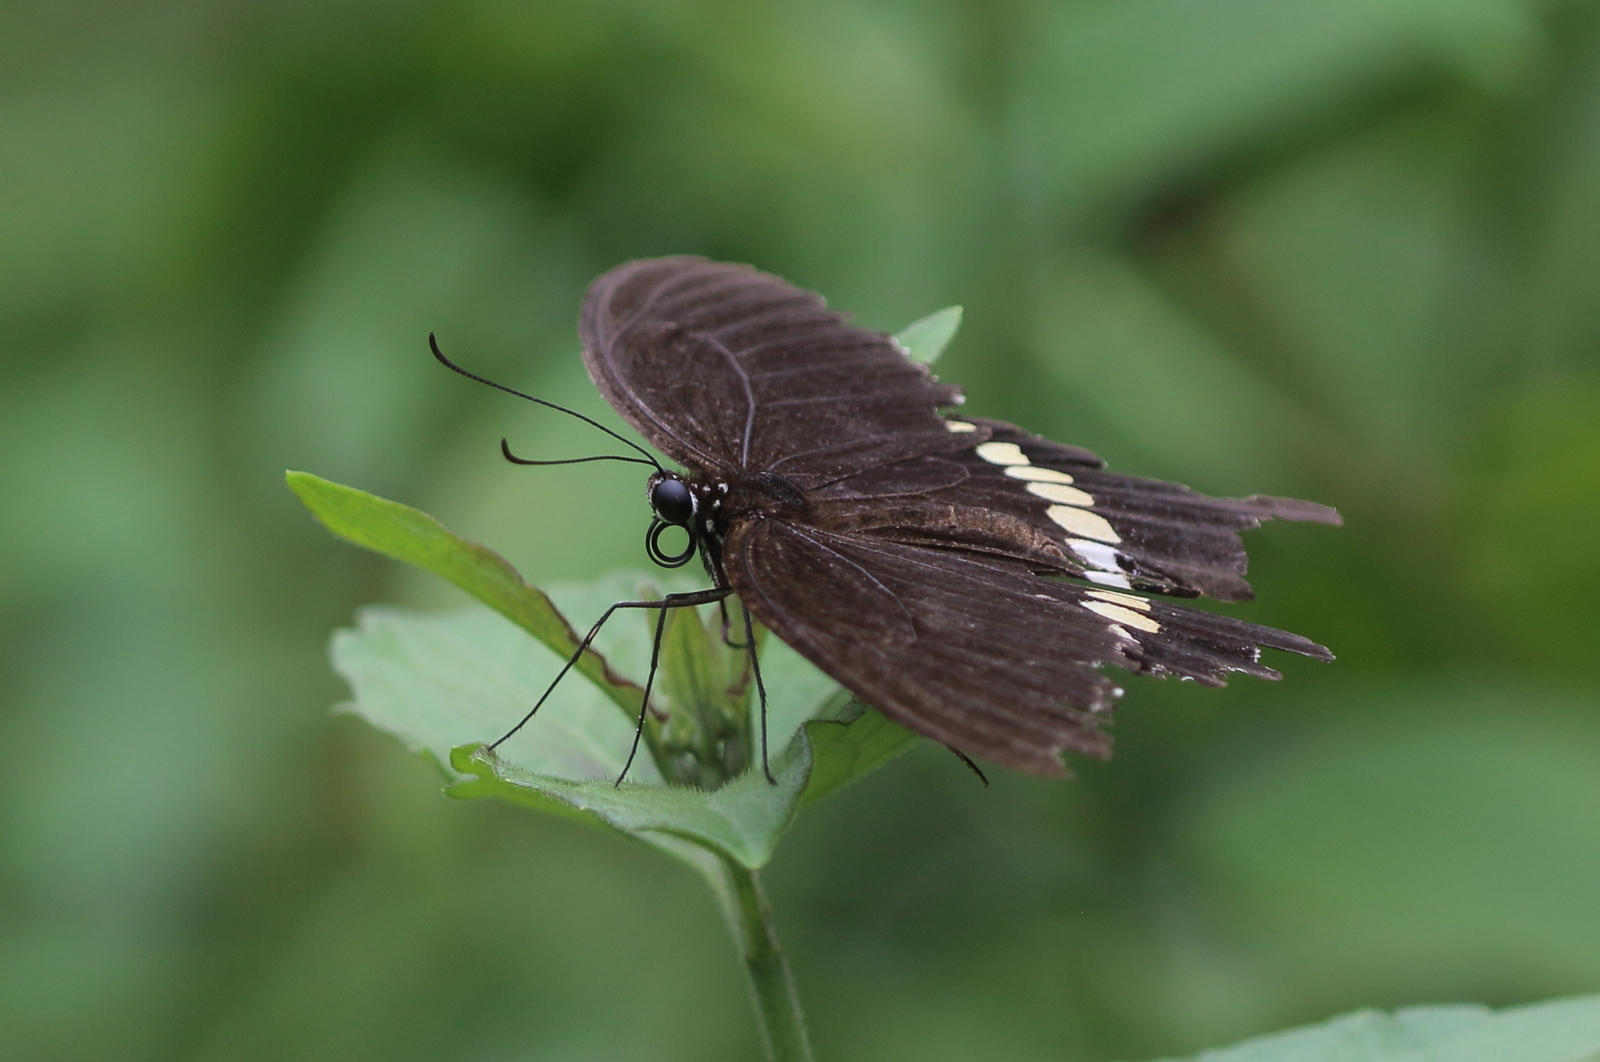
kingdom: Animalia
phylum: Arthropoda
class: Insecta
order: Lepidoptera
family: Papilionidae
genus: Papilio
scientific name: Papilio polytes
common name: Common mormon
